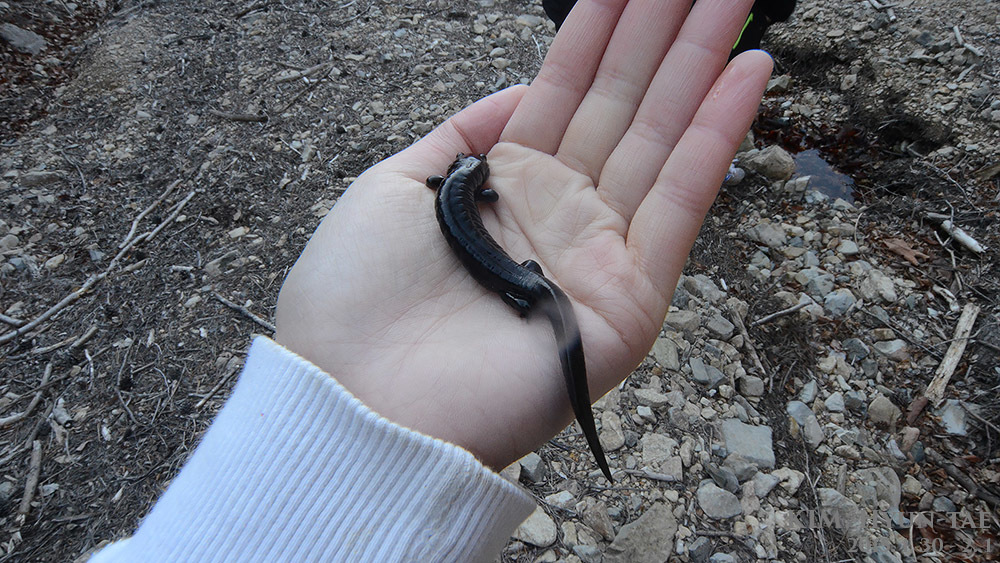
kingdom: Animalia
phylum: Chordata
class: Amphibia
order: Caudata
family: Hynobiidae
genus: Hynobius
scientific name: Hynobius notialis
